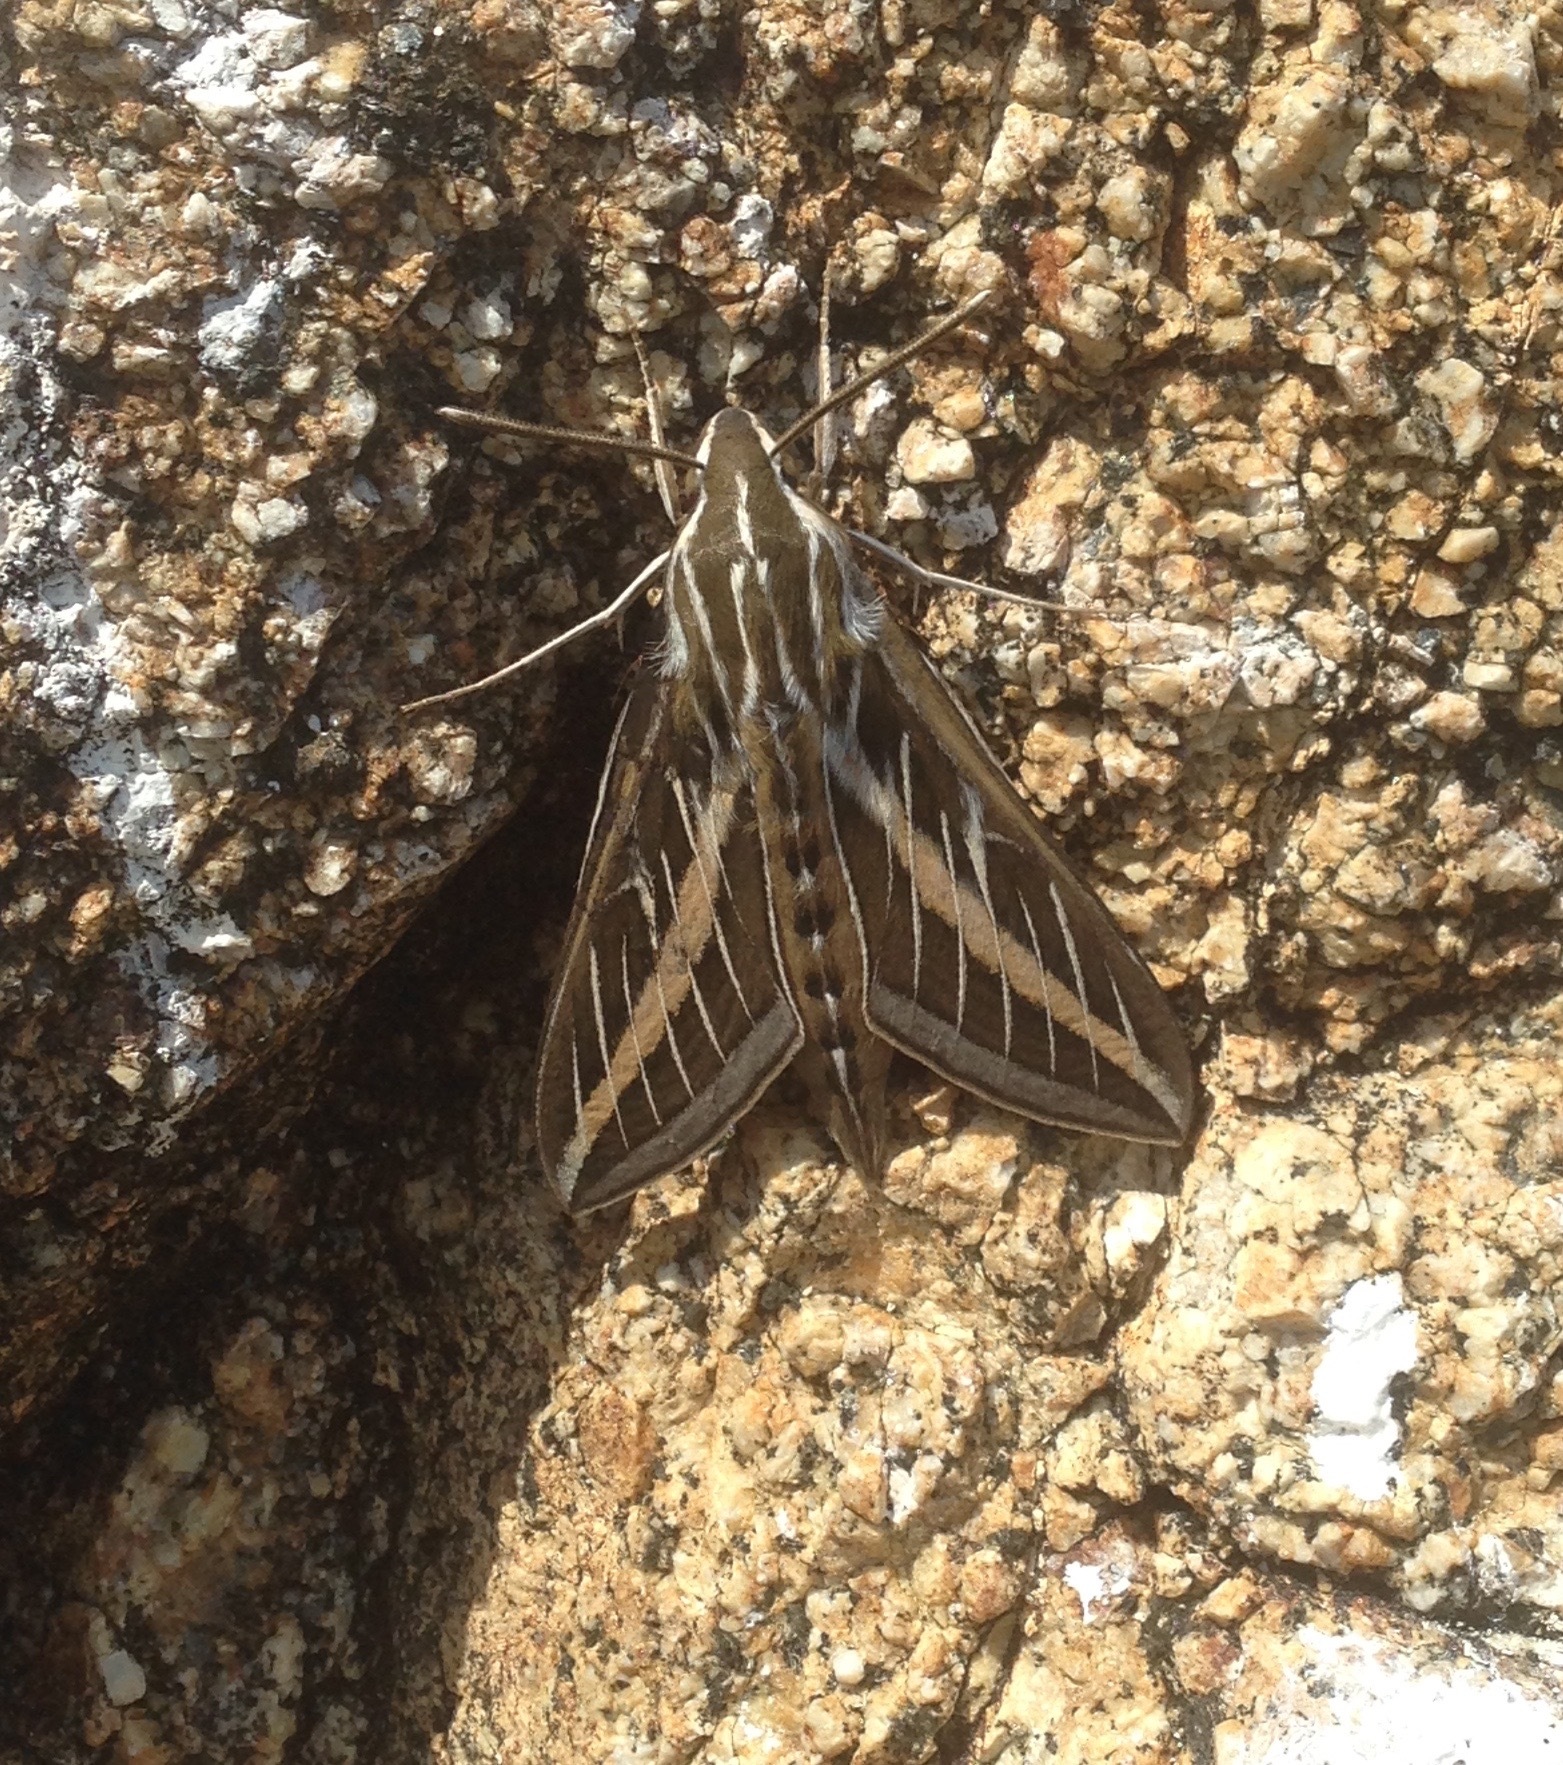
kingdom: Animalia
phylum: Arthropoda
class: Insecta
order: Lepidoptera
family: Sphingidae
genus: Hyles
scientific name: Hyles lineata
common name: White-lined sphinx
